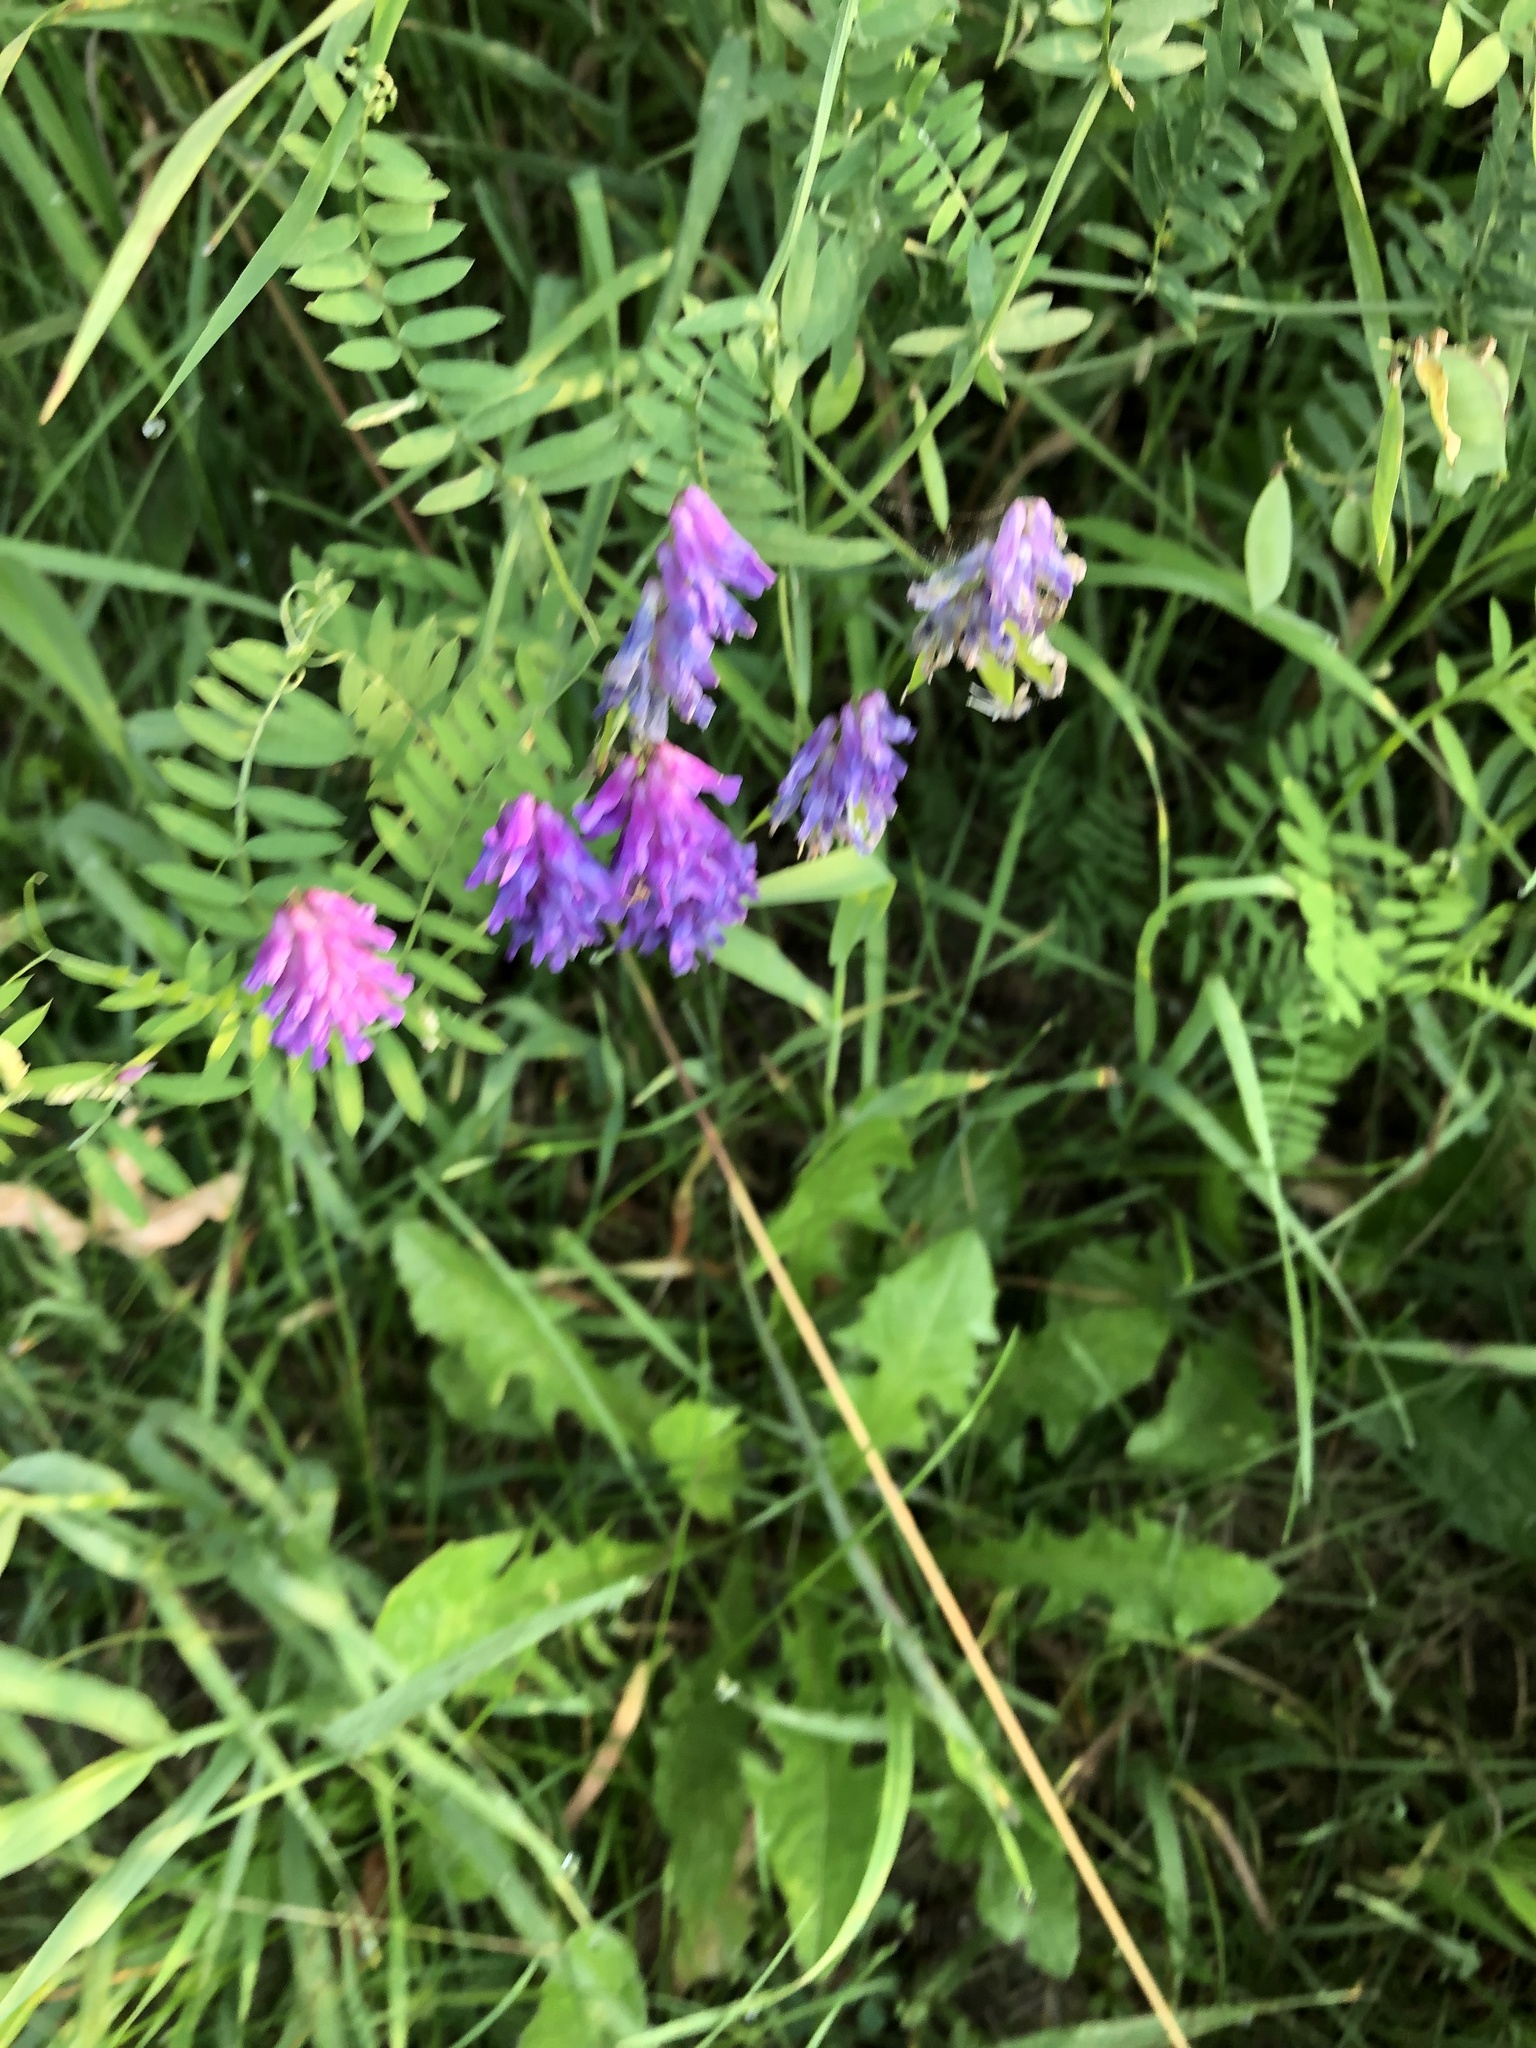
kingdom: Plantae
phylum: Tracheophyta
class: Magnoliopsida
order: Fabales
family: Fabaceae
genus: Vicia
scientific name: Vicia cracca
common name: Bird vetch
